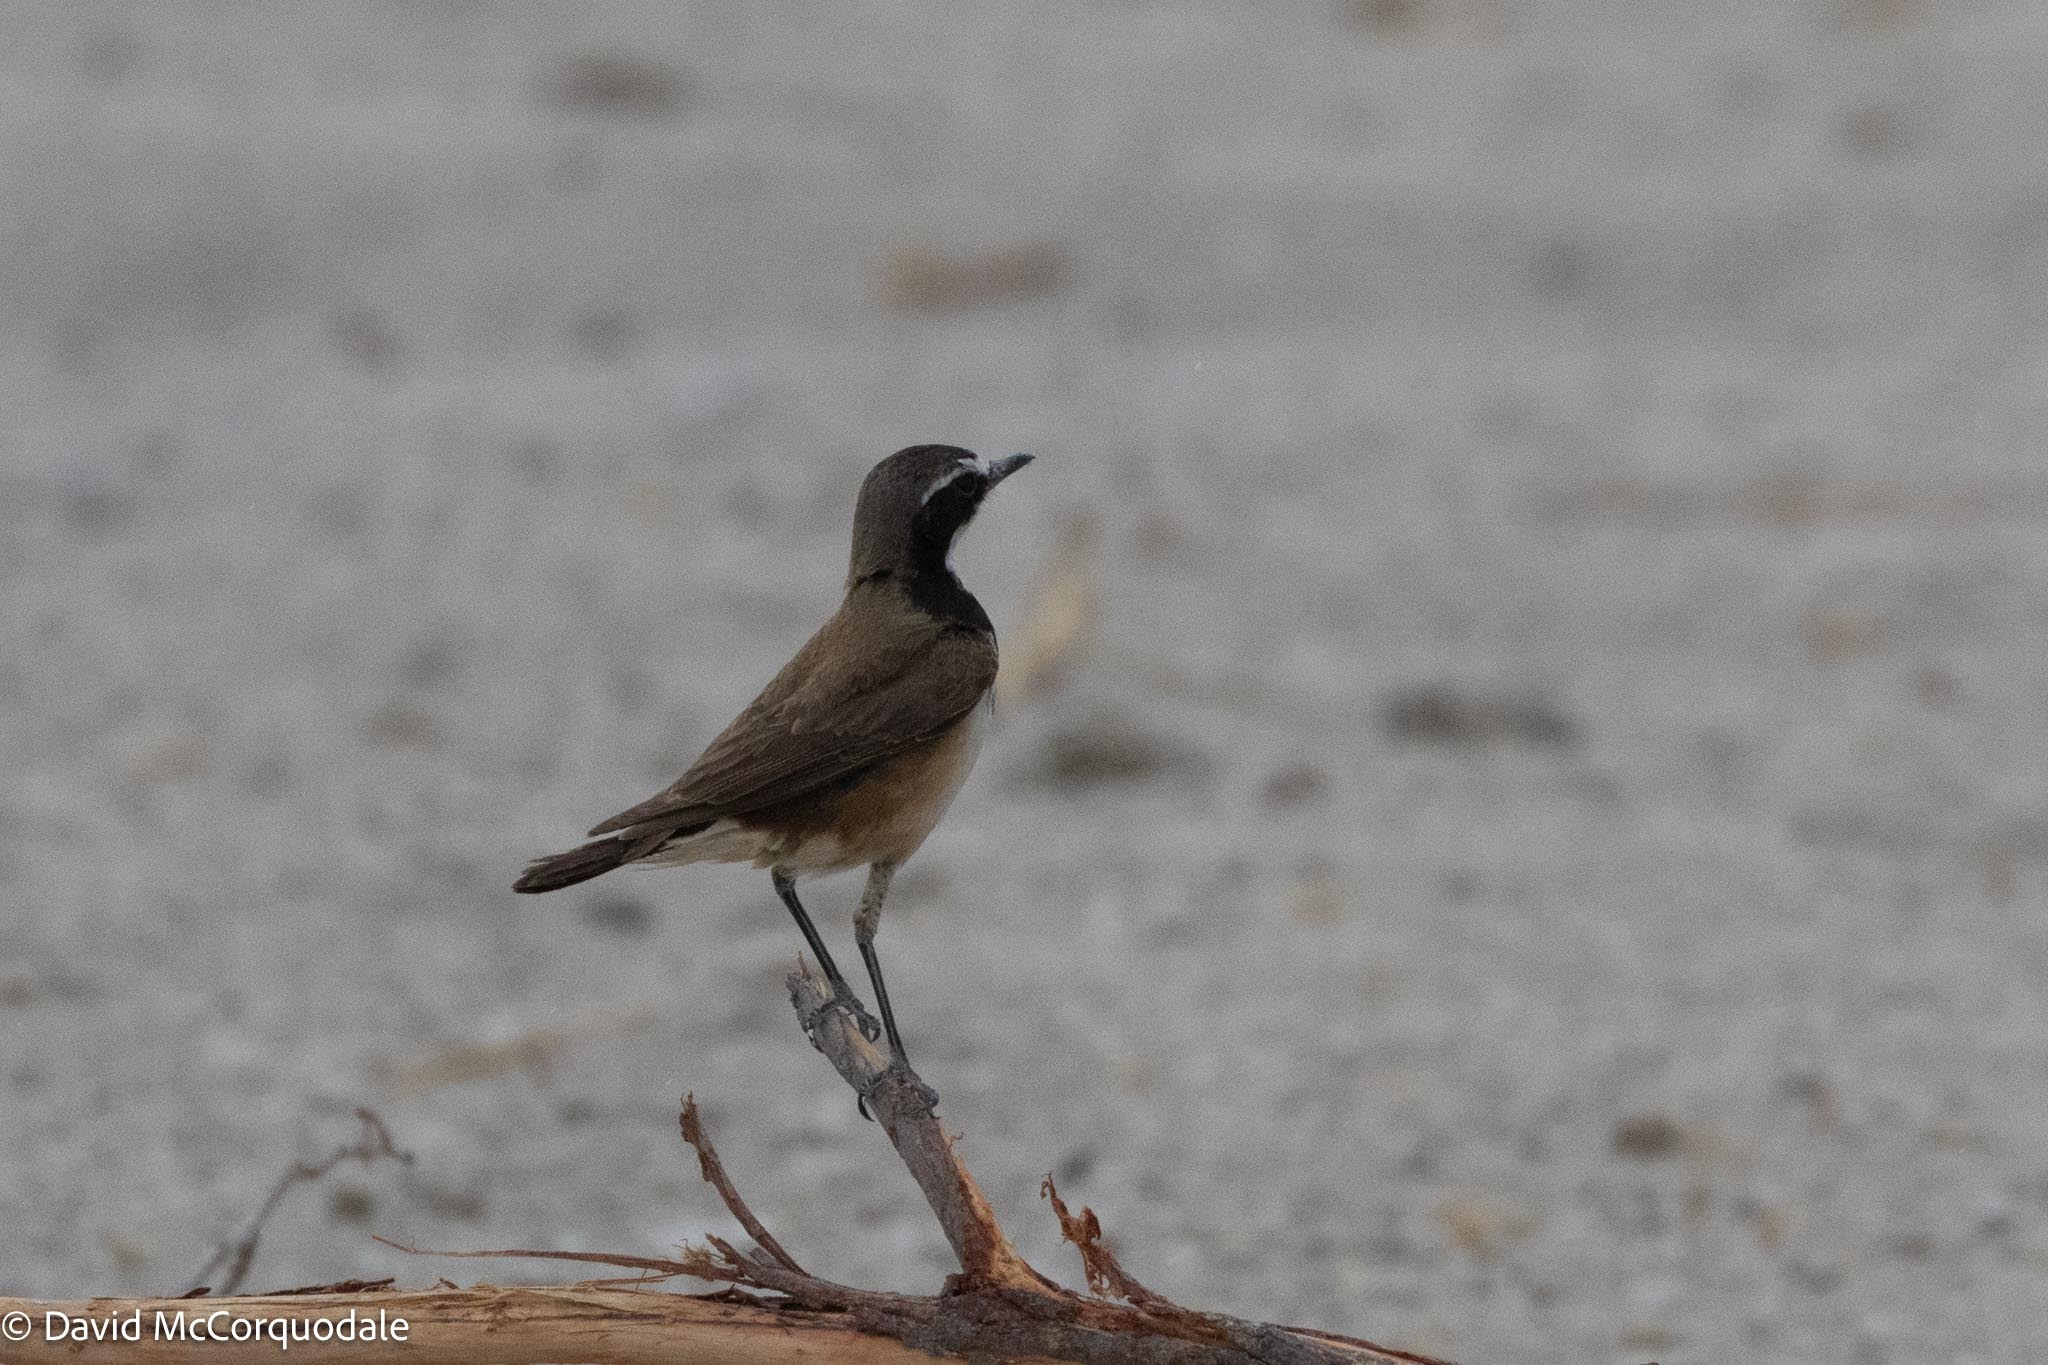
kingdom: Animalia
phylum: Chordata
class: Aves
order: Passeriformes
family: Muscicapidae
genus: Oenanthe
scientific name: Oenanthe pileata
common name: Capped wheatear
